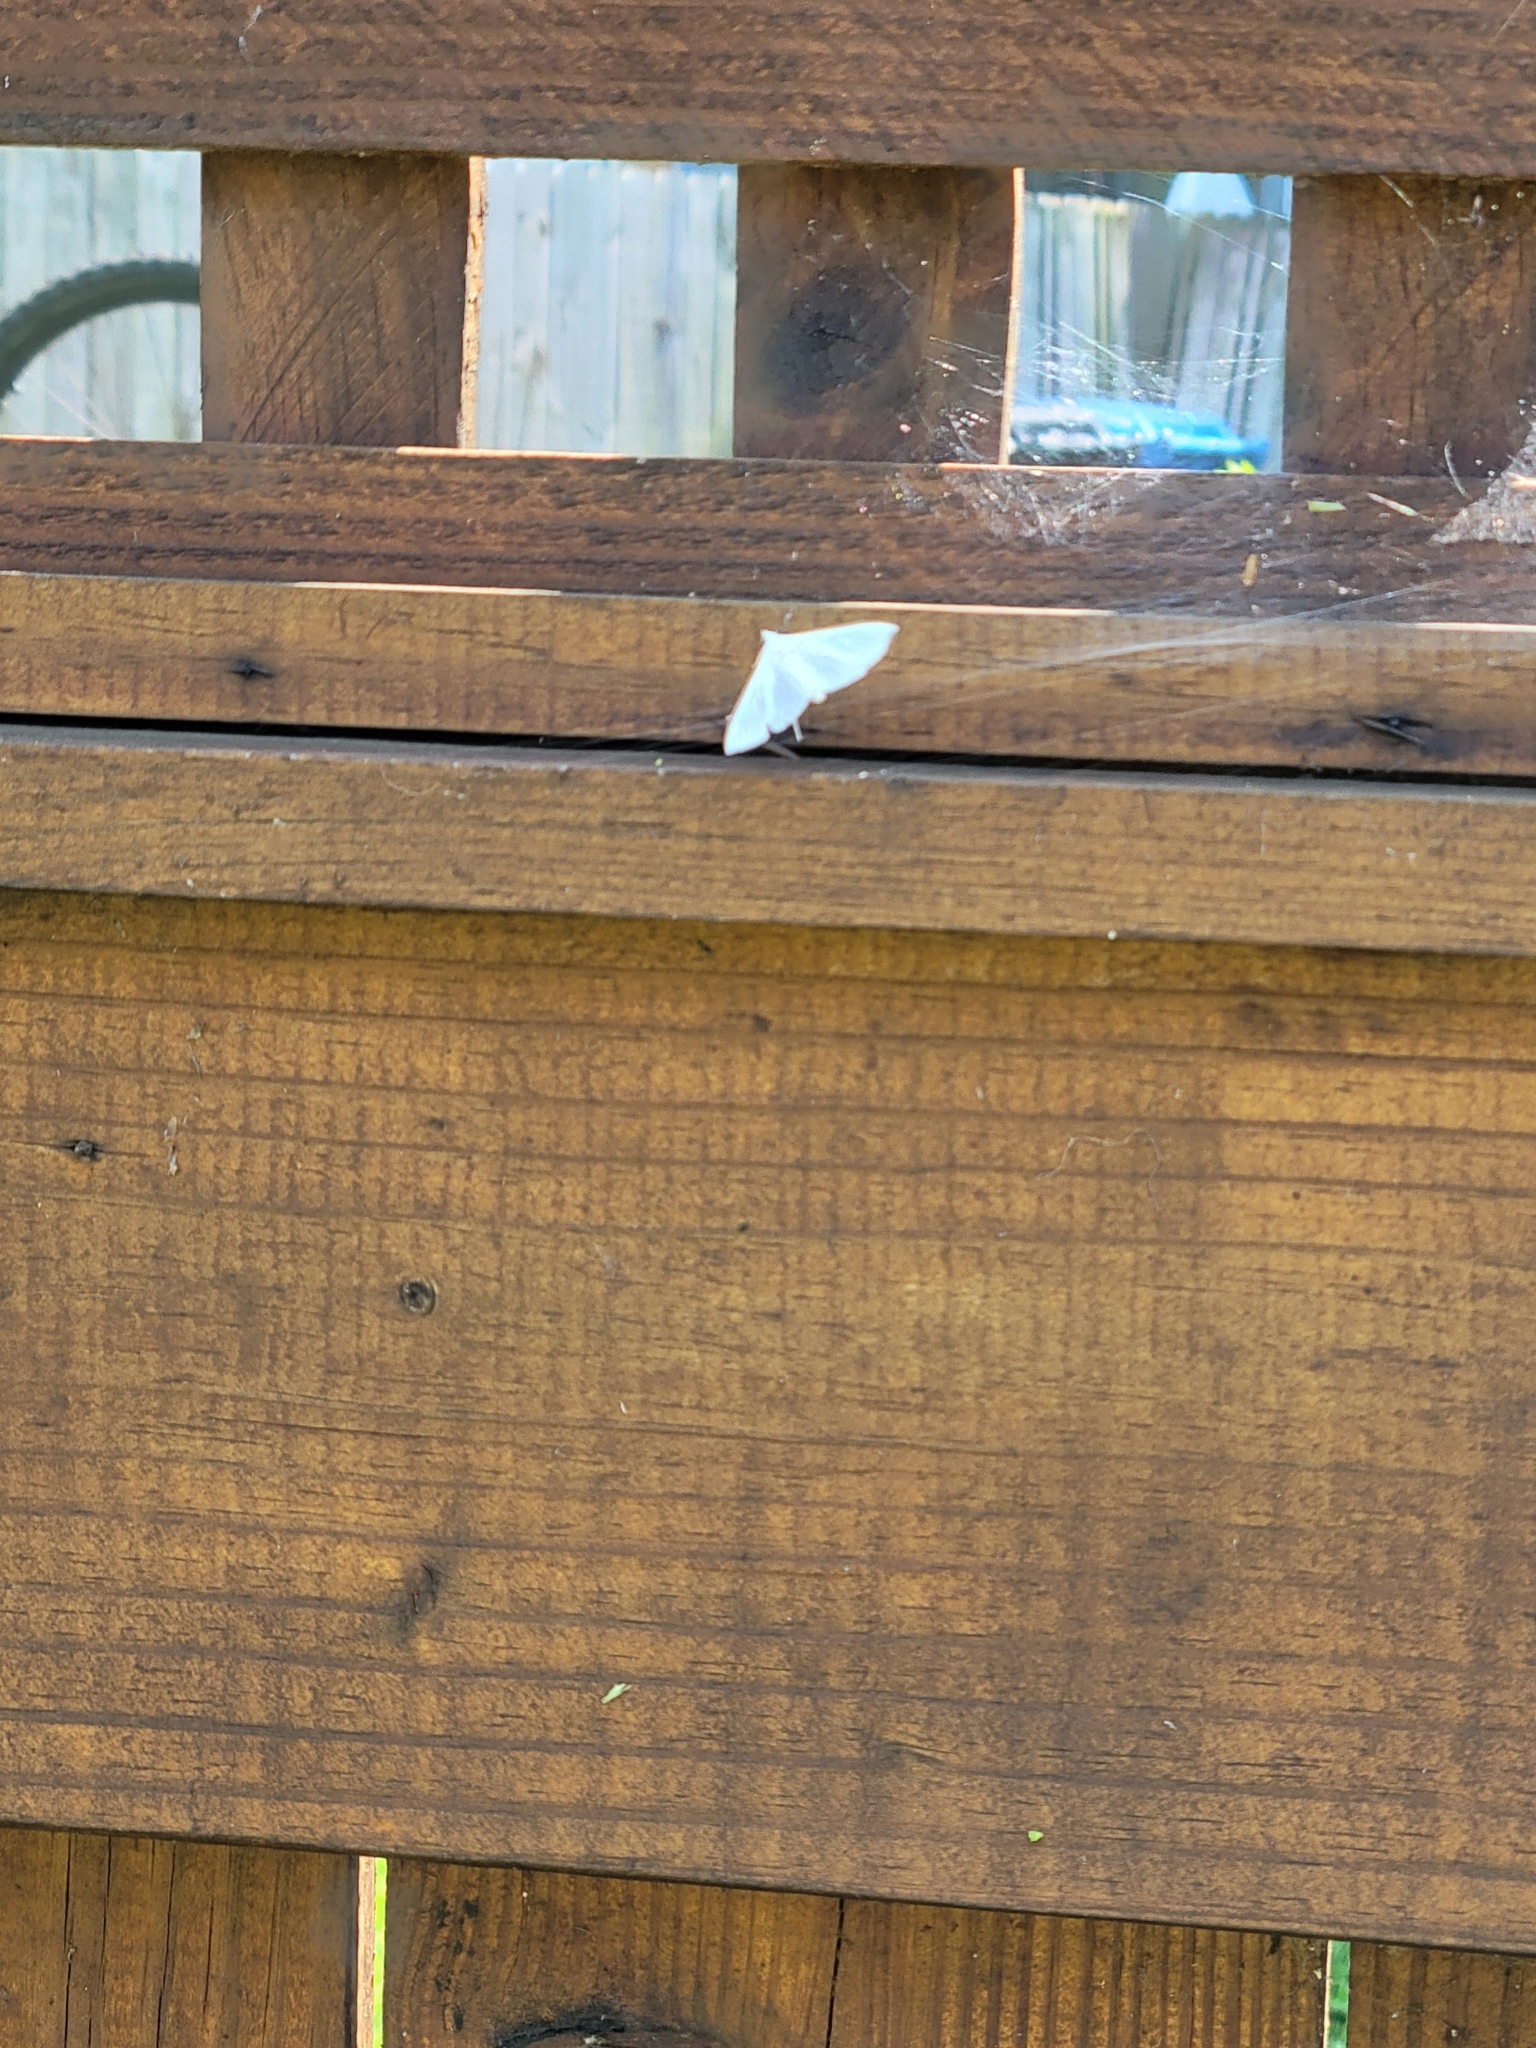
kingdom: Animalia
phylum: Arthropoda
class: Insecta
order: Lepidoptera
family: Crambidae
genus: Diaphania
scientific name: Diaphania costata
